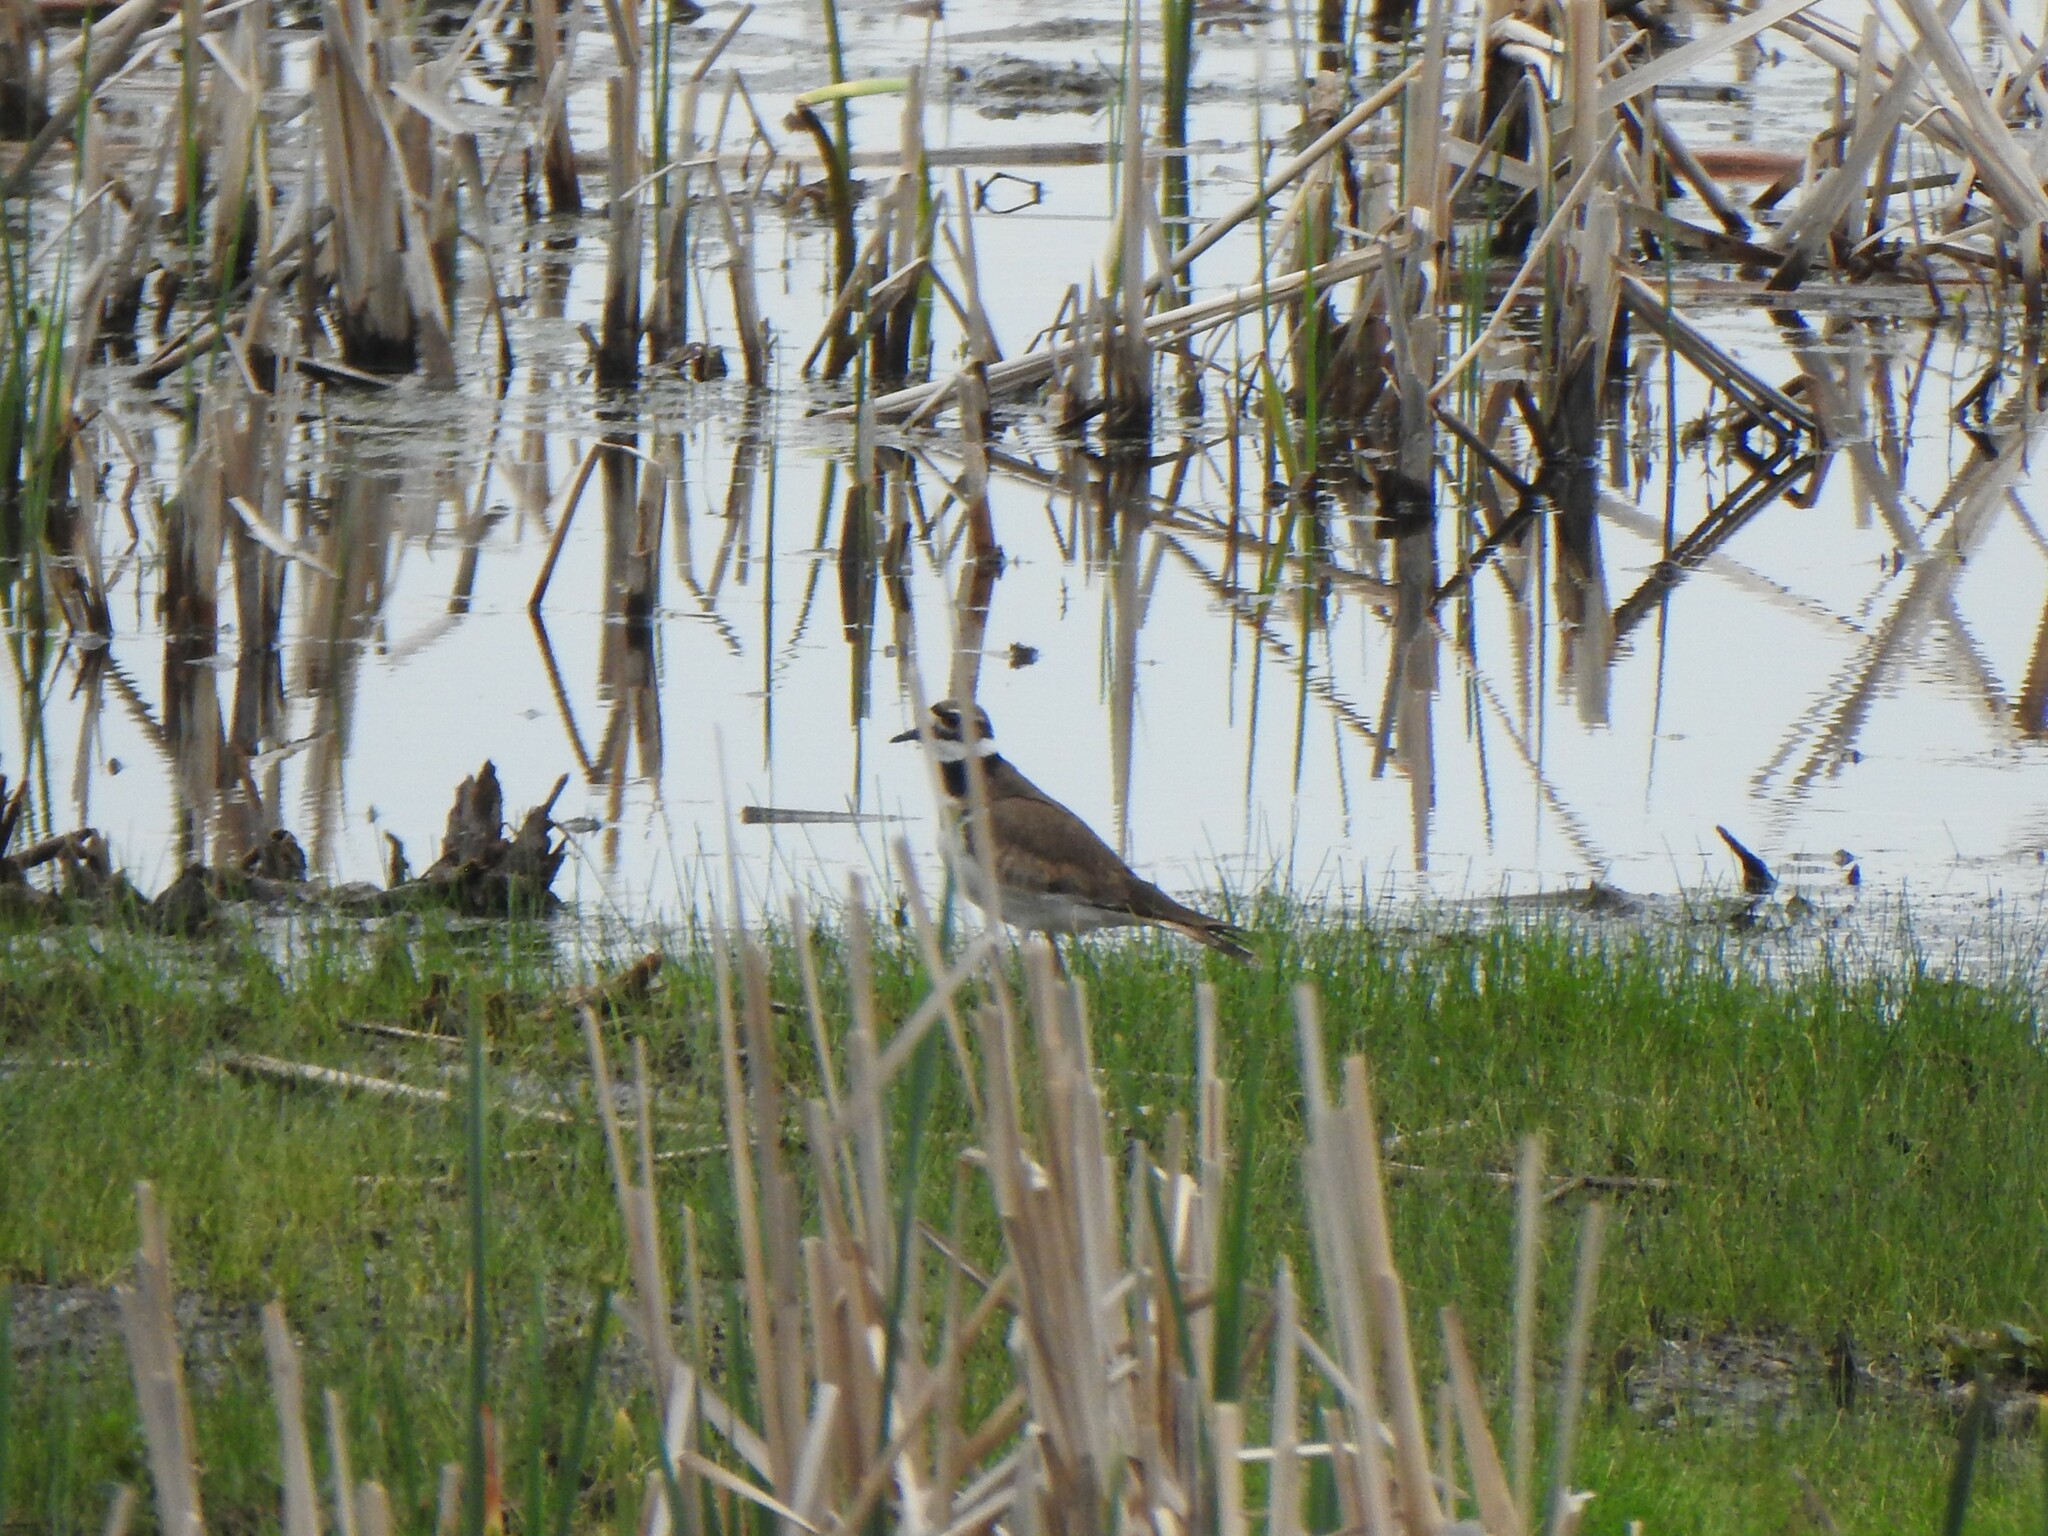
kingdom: Animalia
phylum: Chordata
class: Aves
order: Charadriiformes
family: Charadriidae
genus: Charadrius
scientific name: Charadrius vociferus
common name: Killdeer
